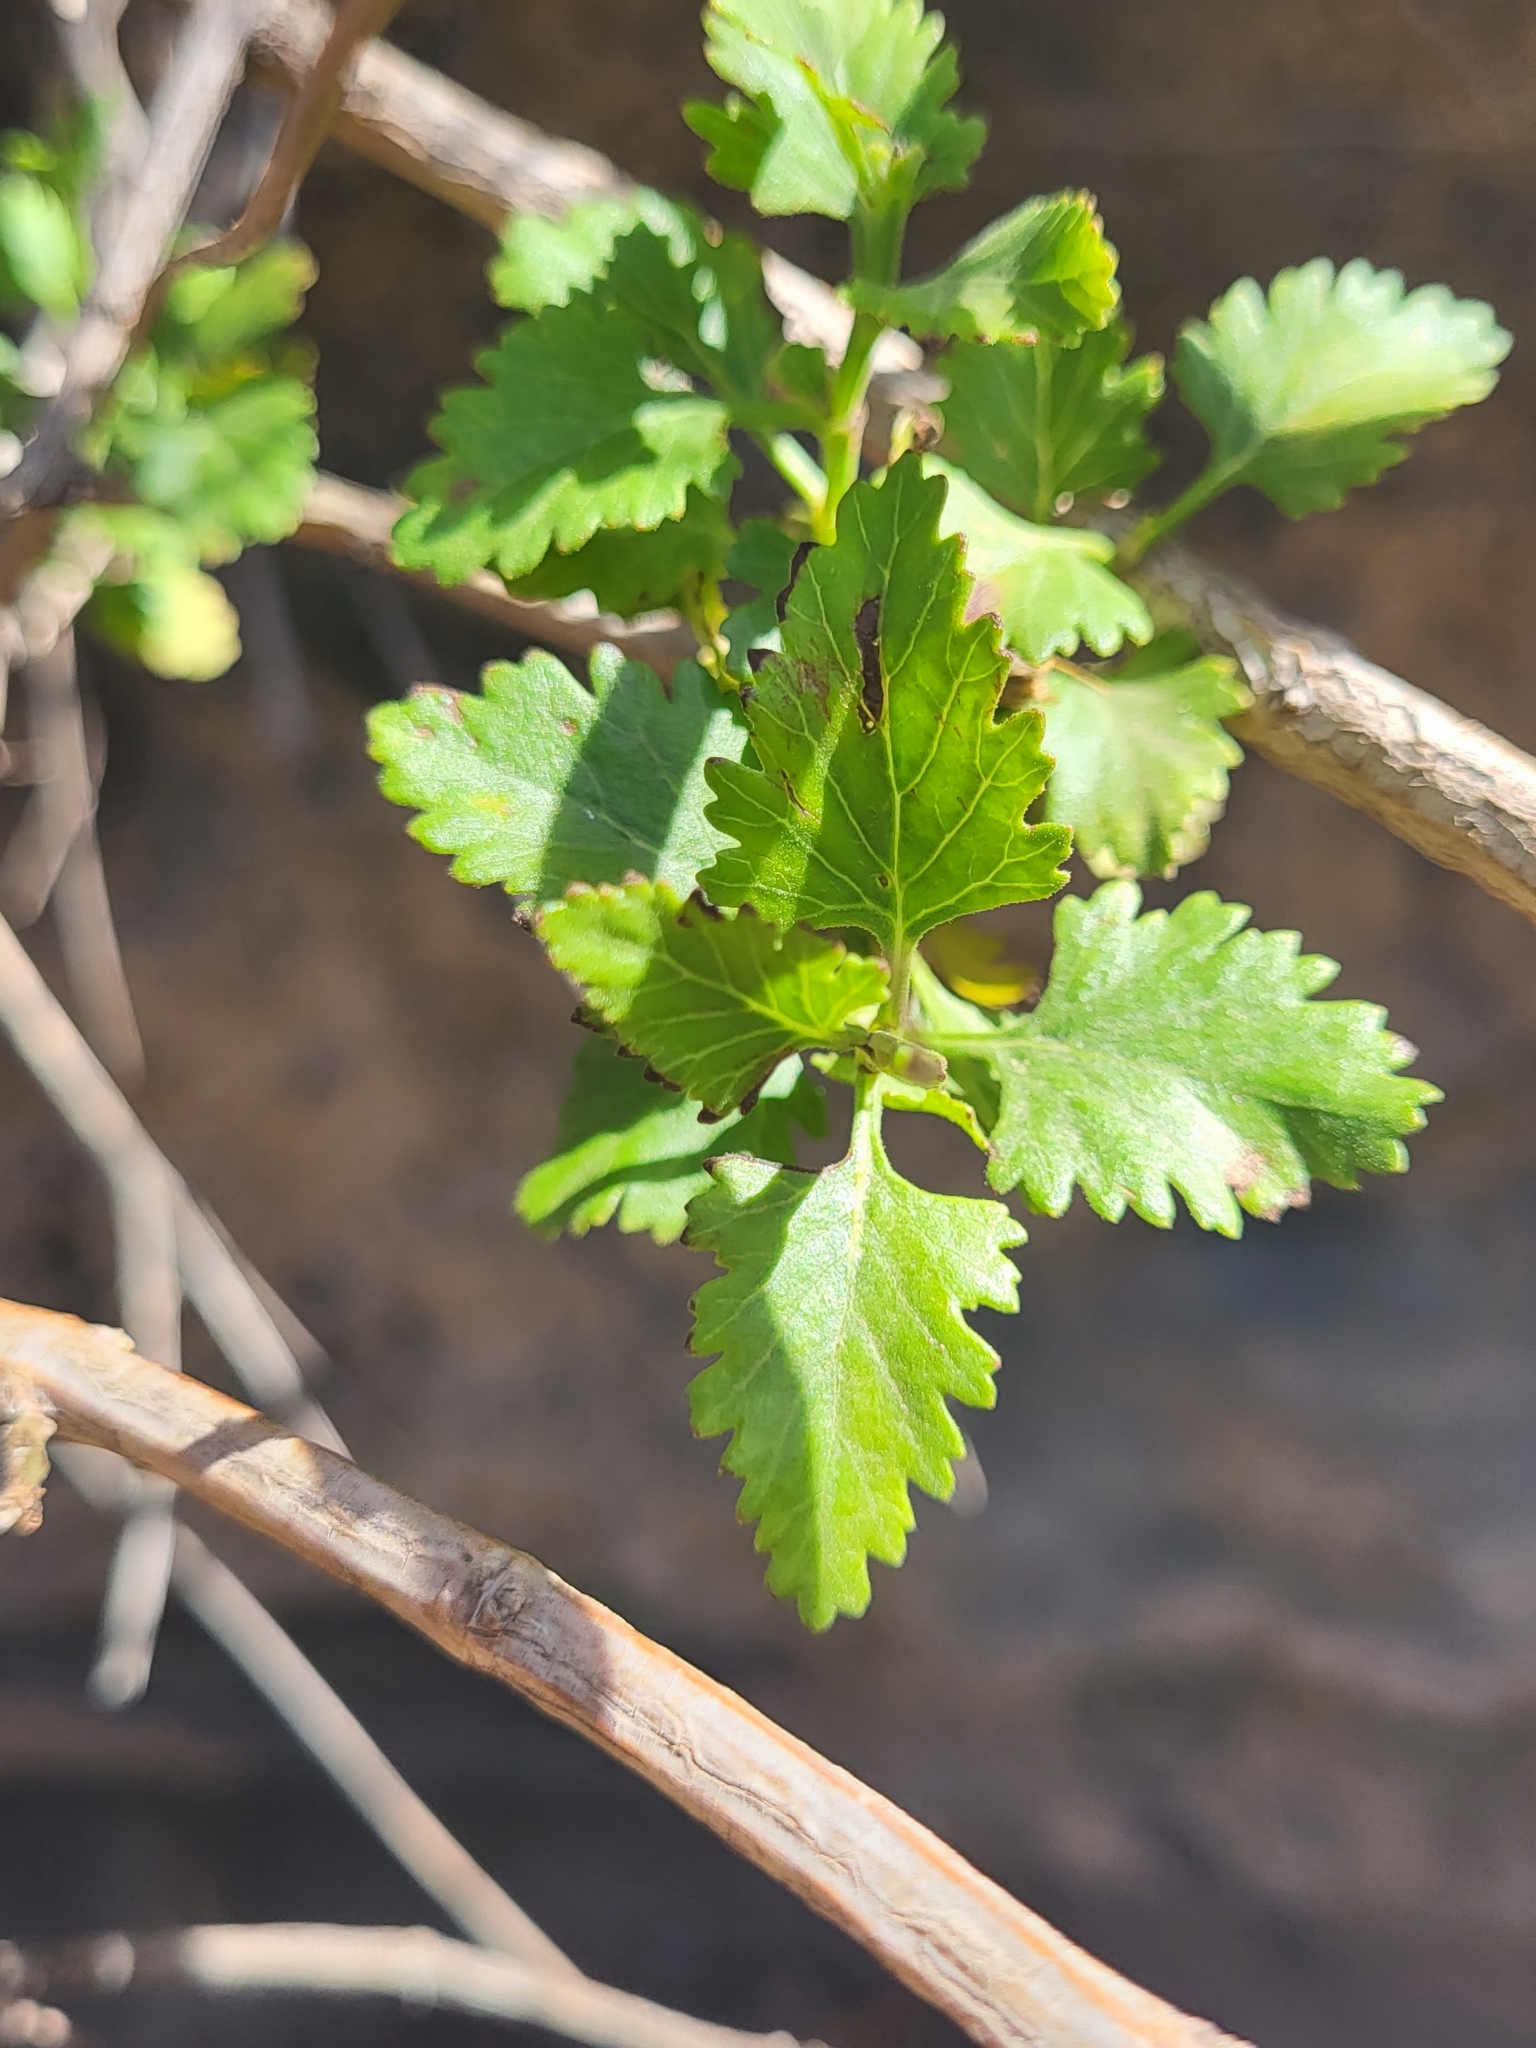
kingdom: Plantae
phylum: Tracheophyta
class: Magnoliopsida
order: Lamiales
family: Lamiaceae
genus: Lavandula
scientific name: Lavandula rotundifolia
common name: Round-leaf lavender
